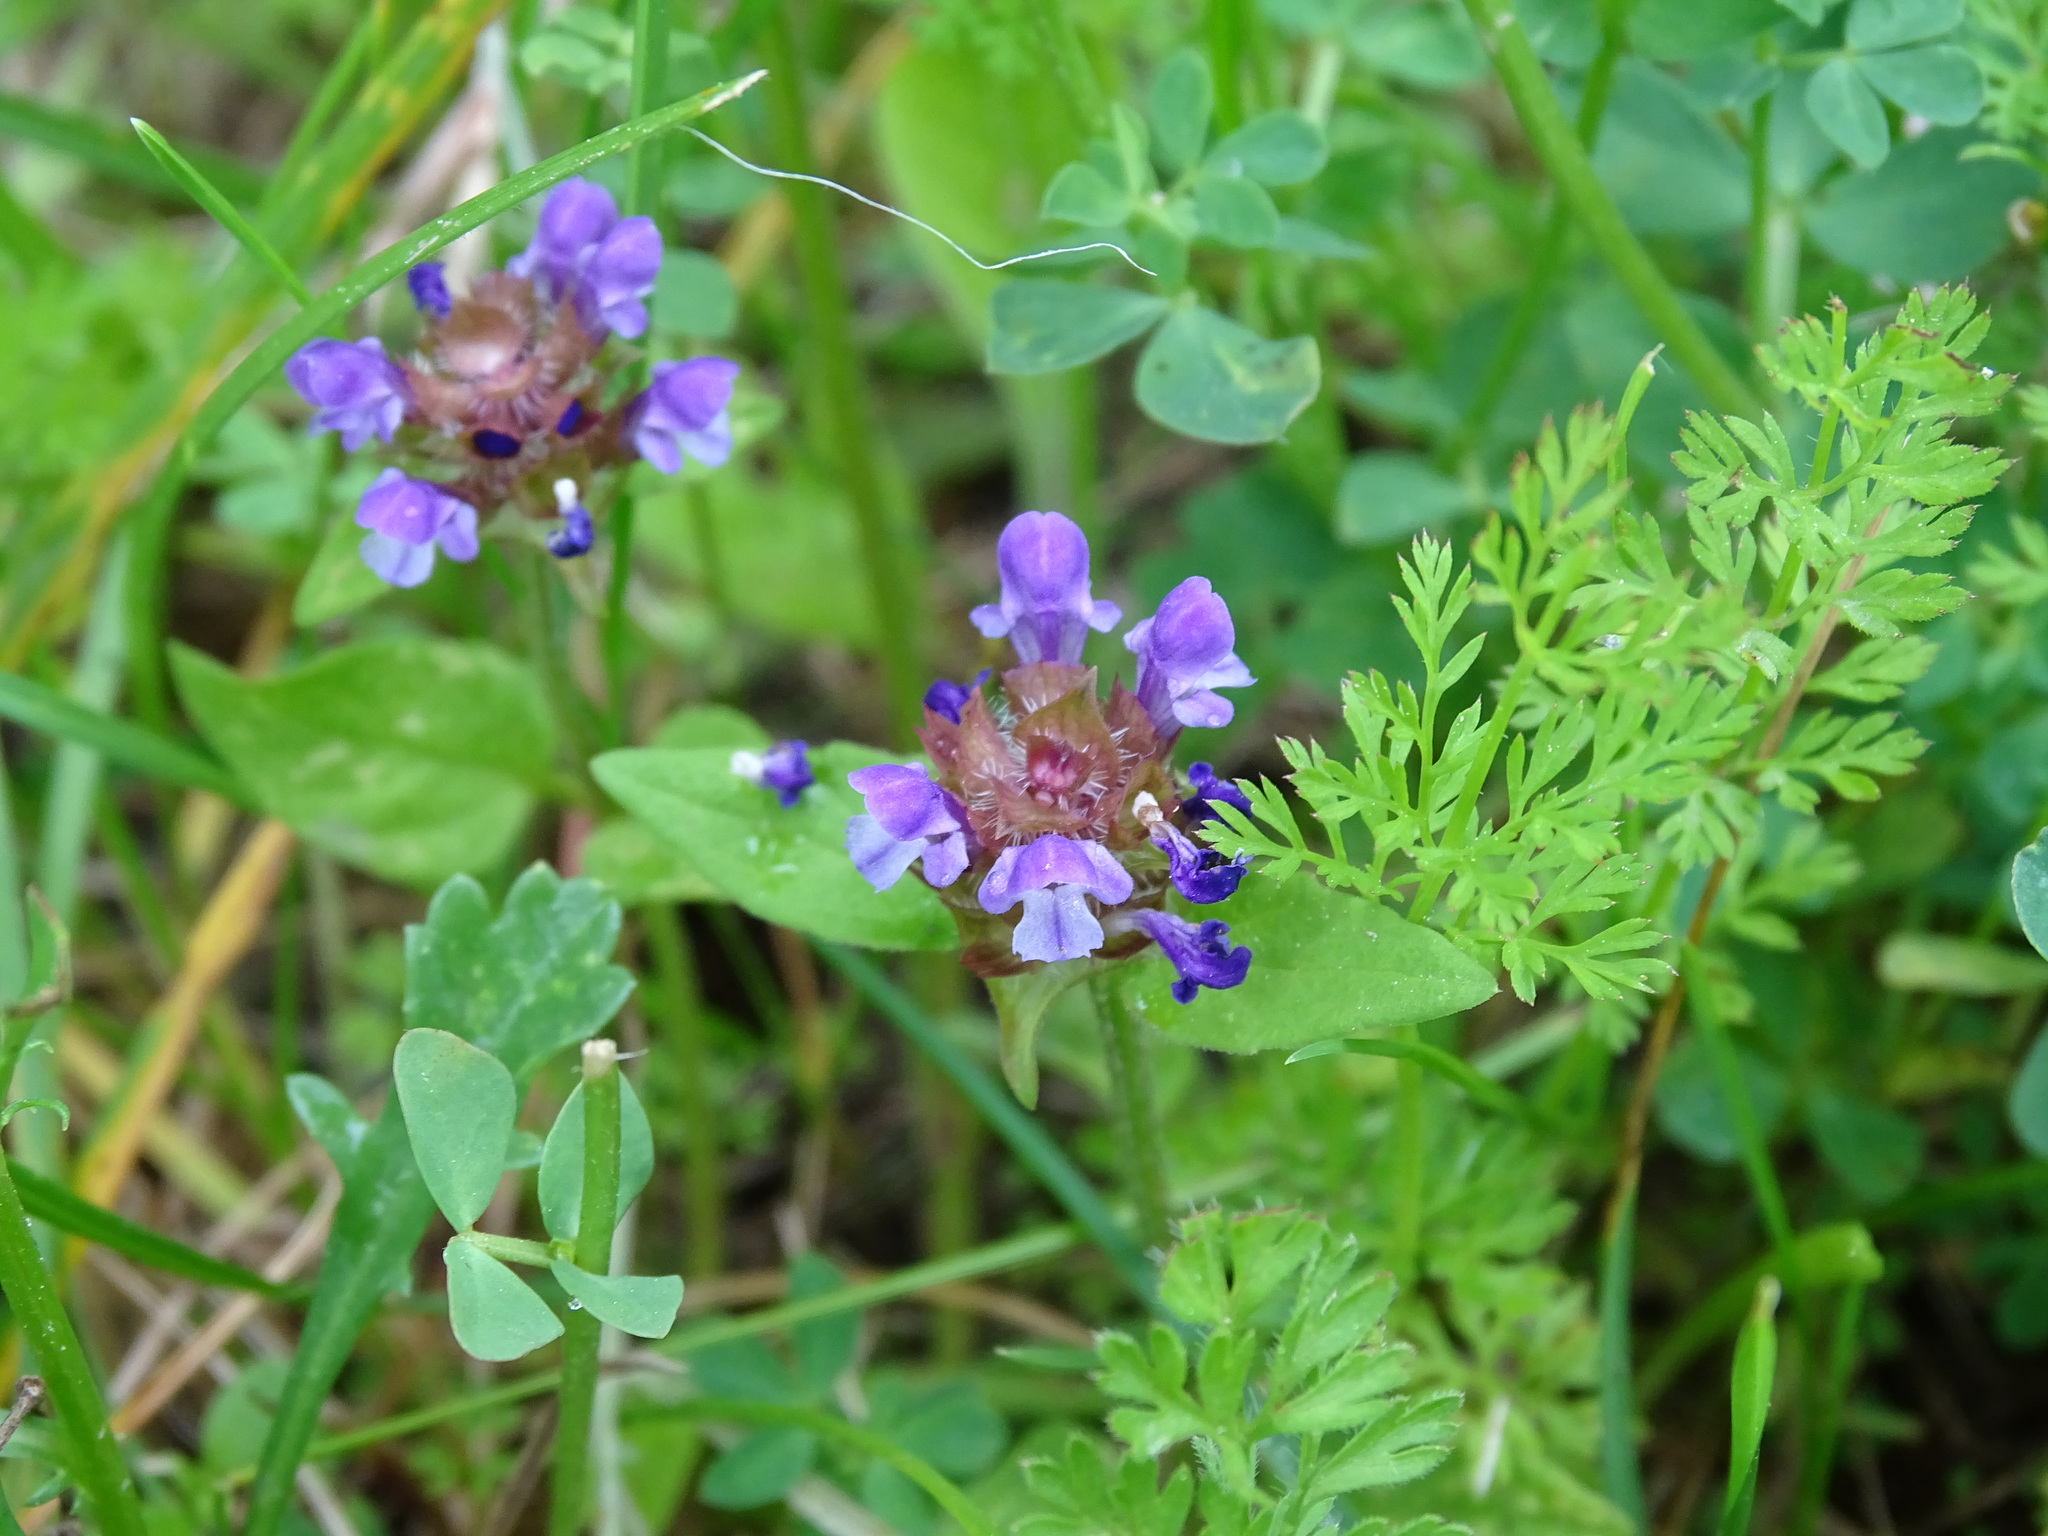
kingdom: Plantae
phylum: Tracheophyta
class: Magnoliopsida
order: Lamiales
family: Lamiaceae
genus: Prunella
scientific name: Prunella vulgaris
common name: Heal-all
